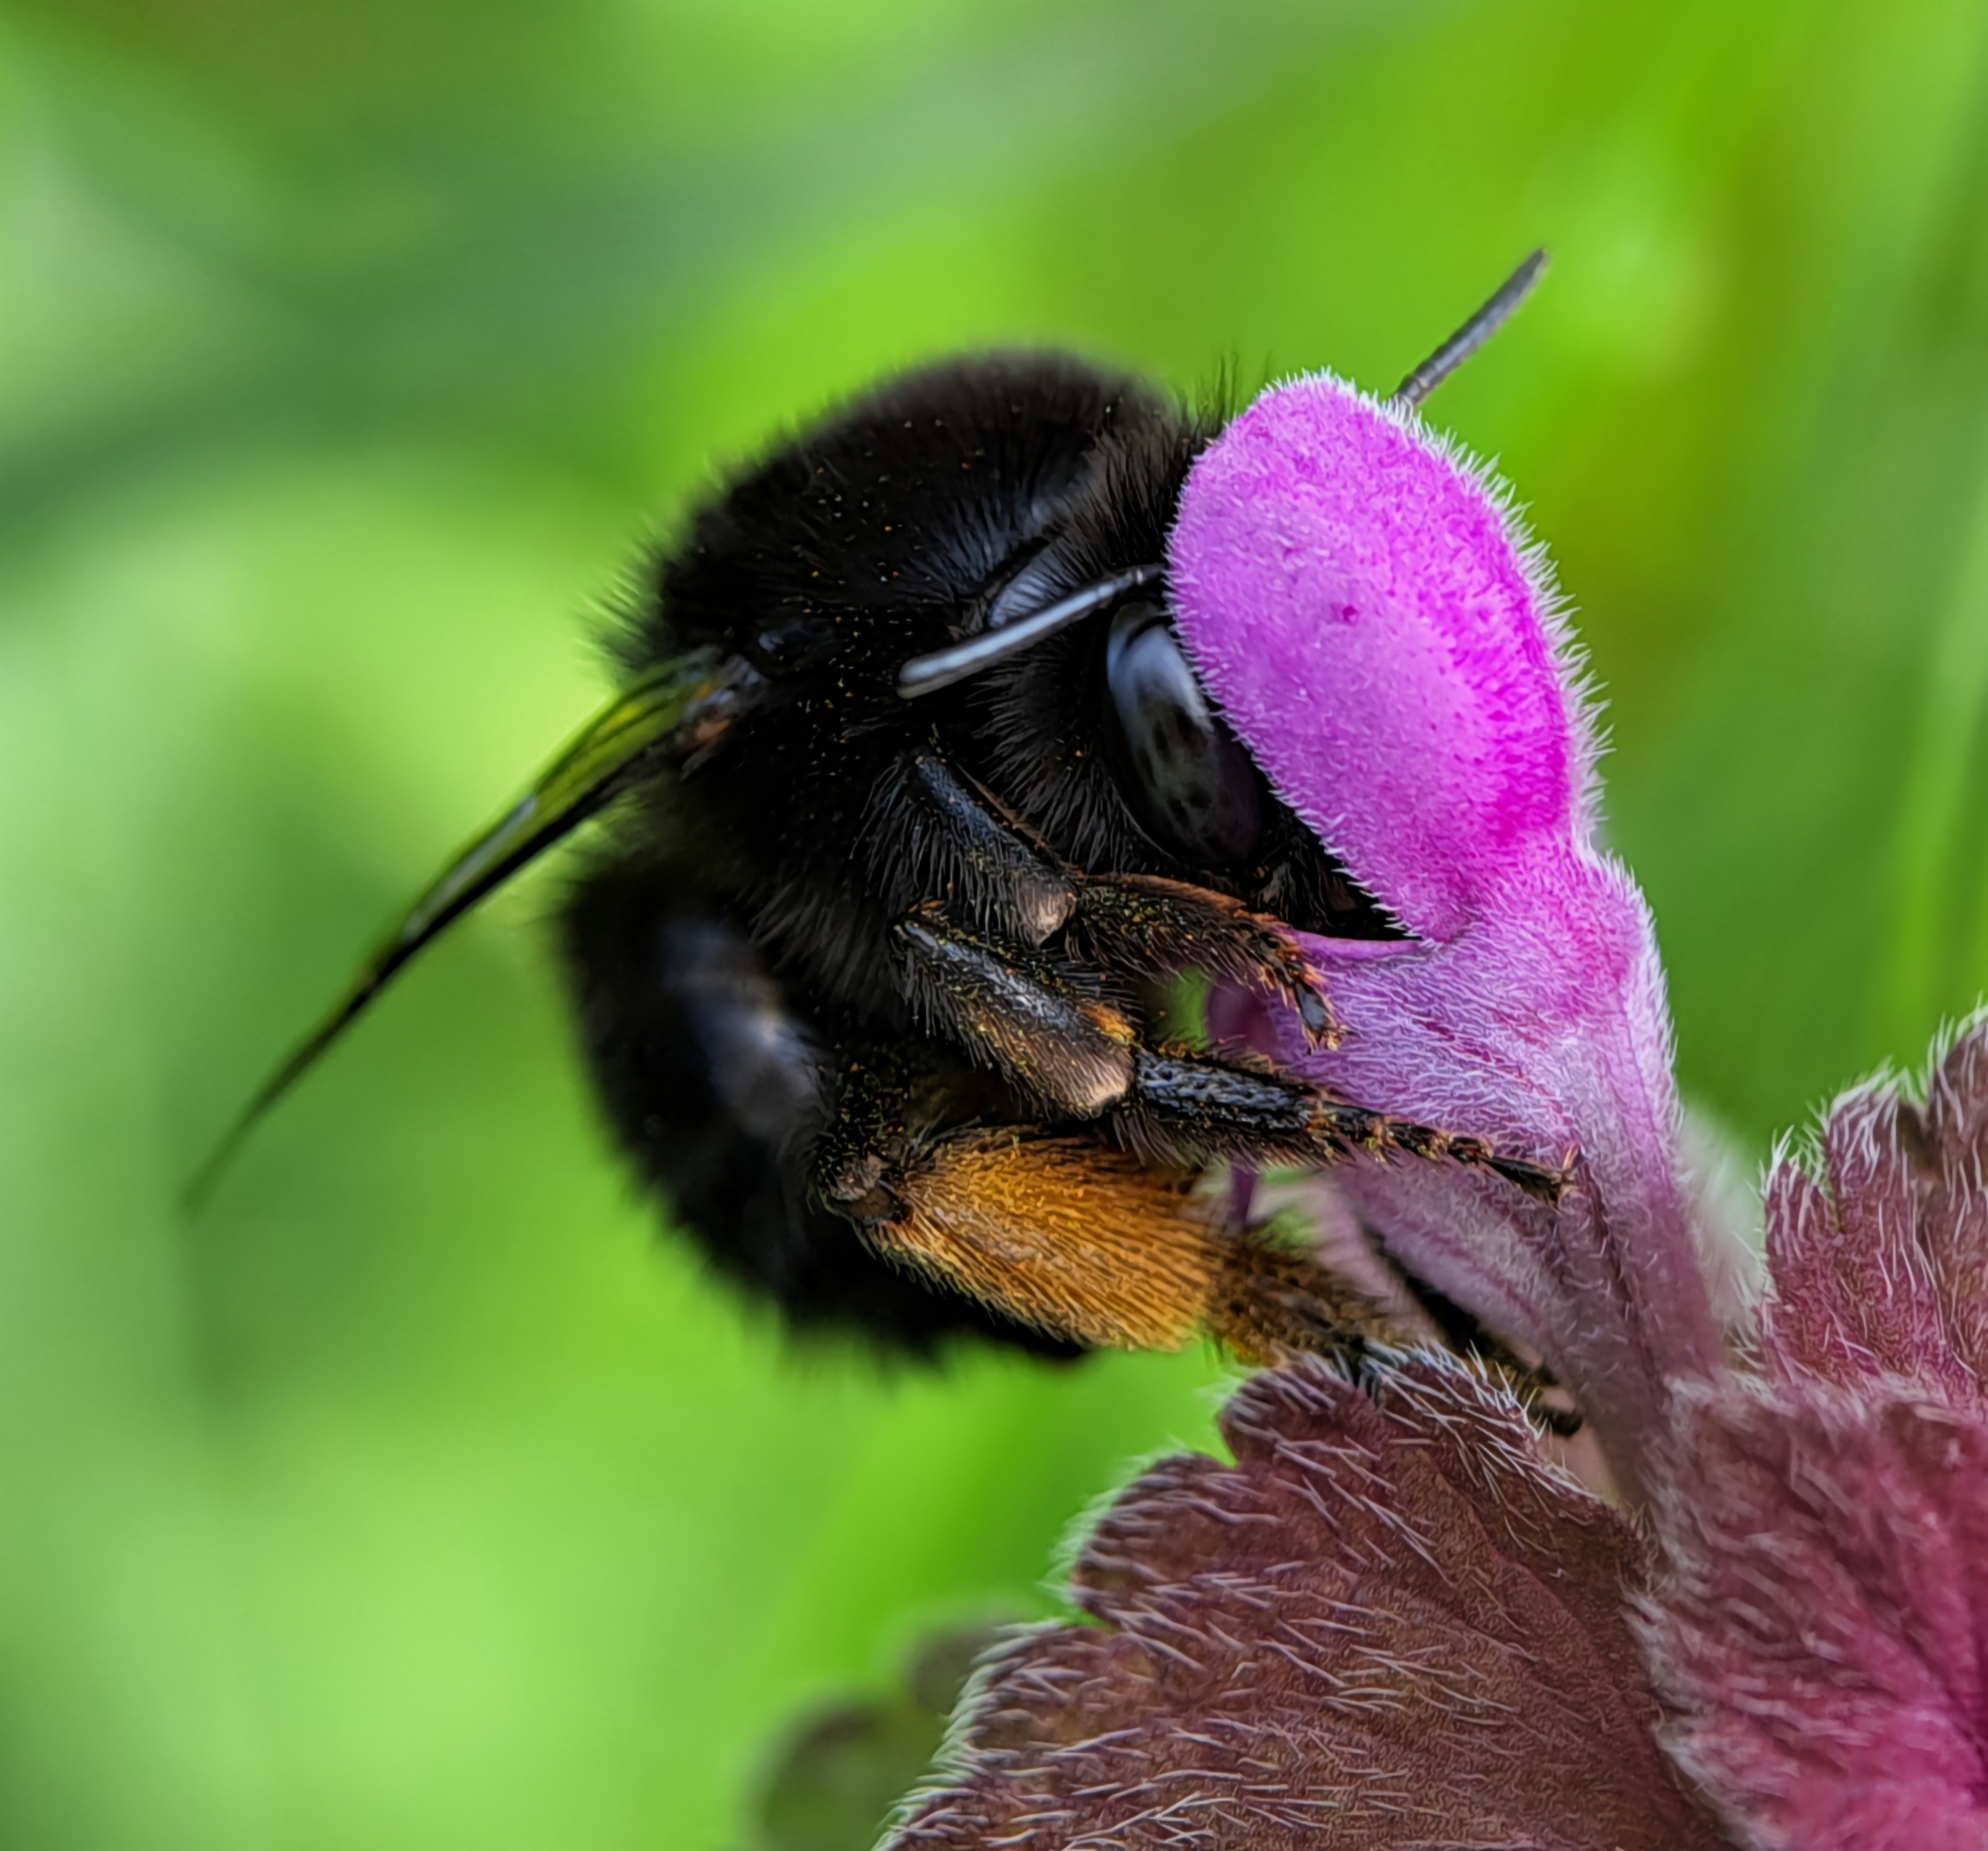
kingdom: Animalia
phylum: Arthropoda
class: Insecta
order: Hymenoptera
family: Apidae
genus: Anthophora
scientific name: Anthophora plumipes
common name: Hairy-footed flower bee
